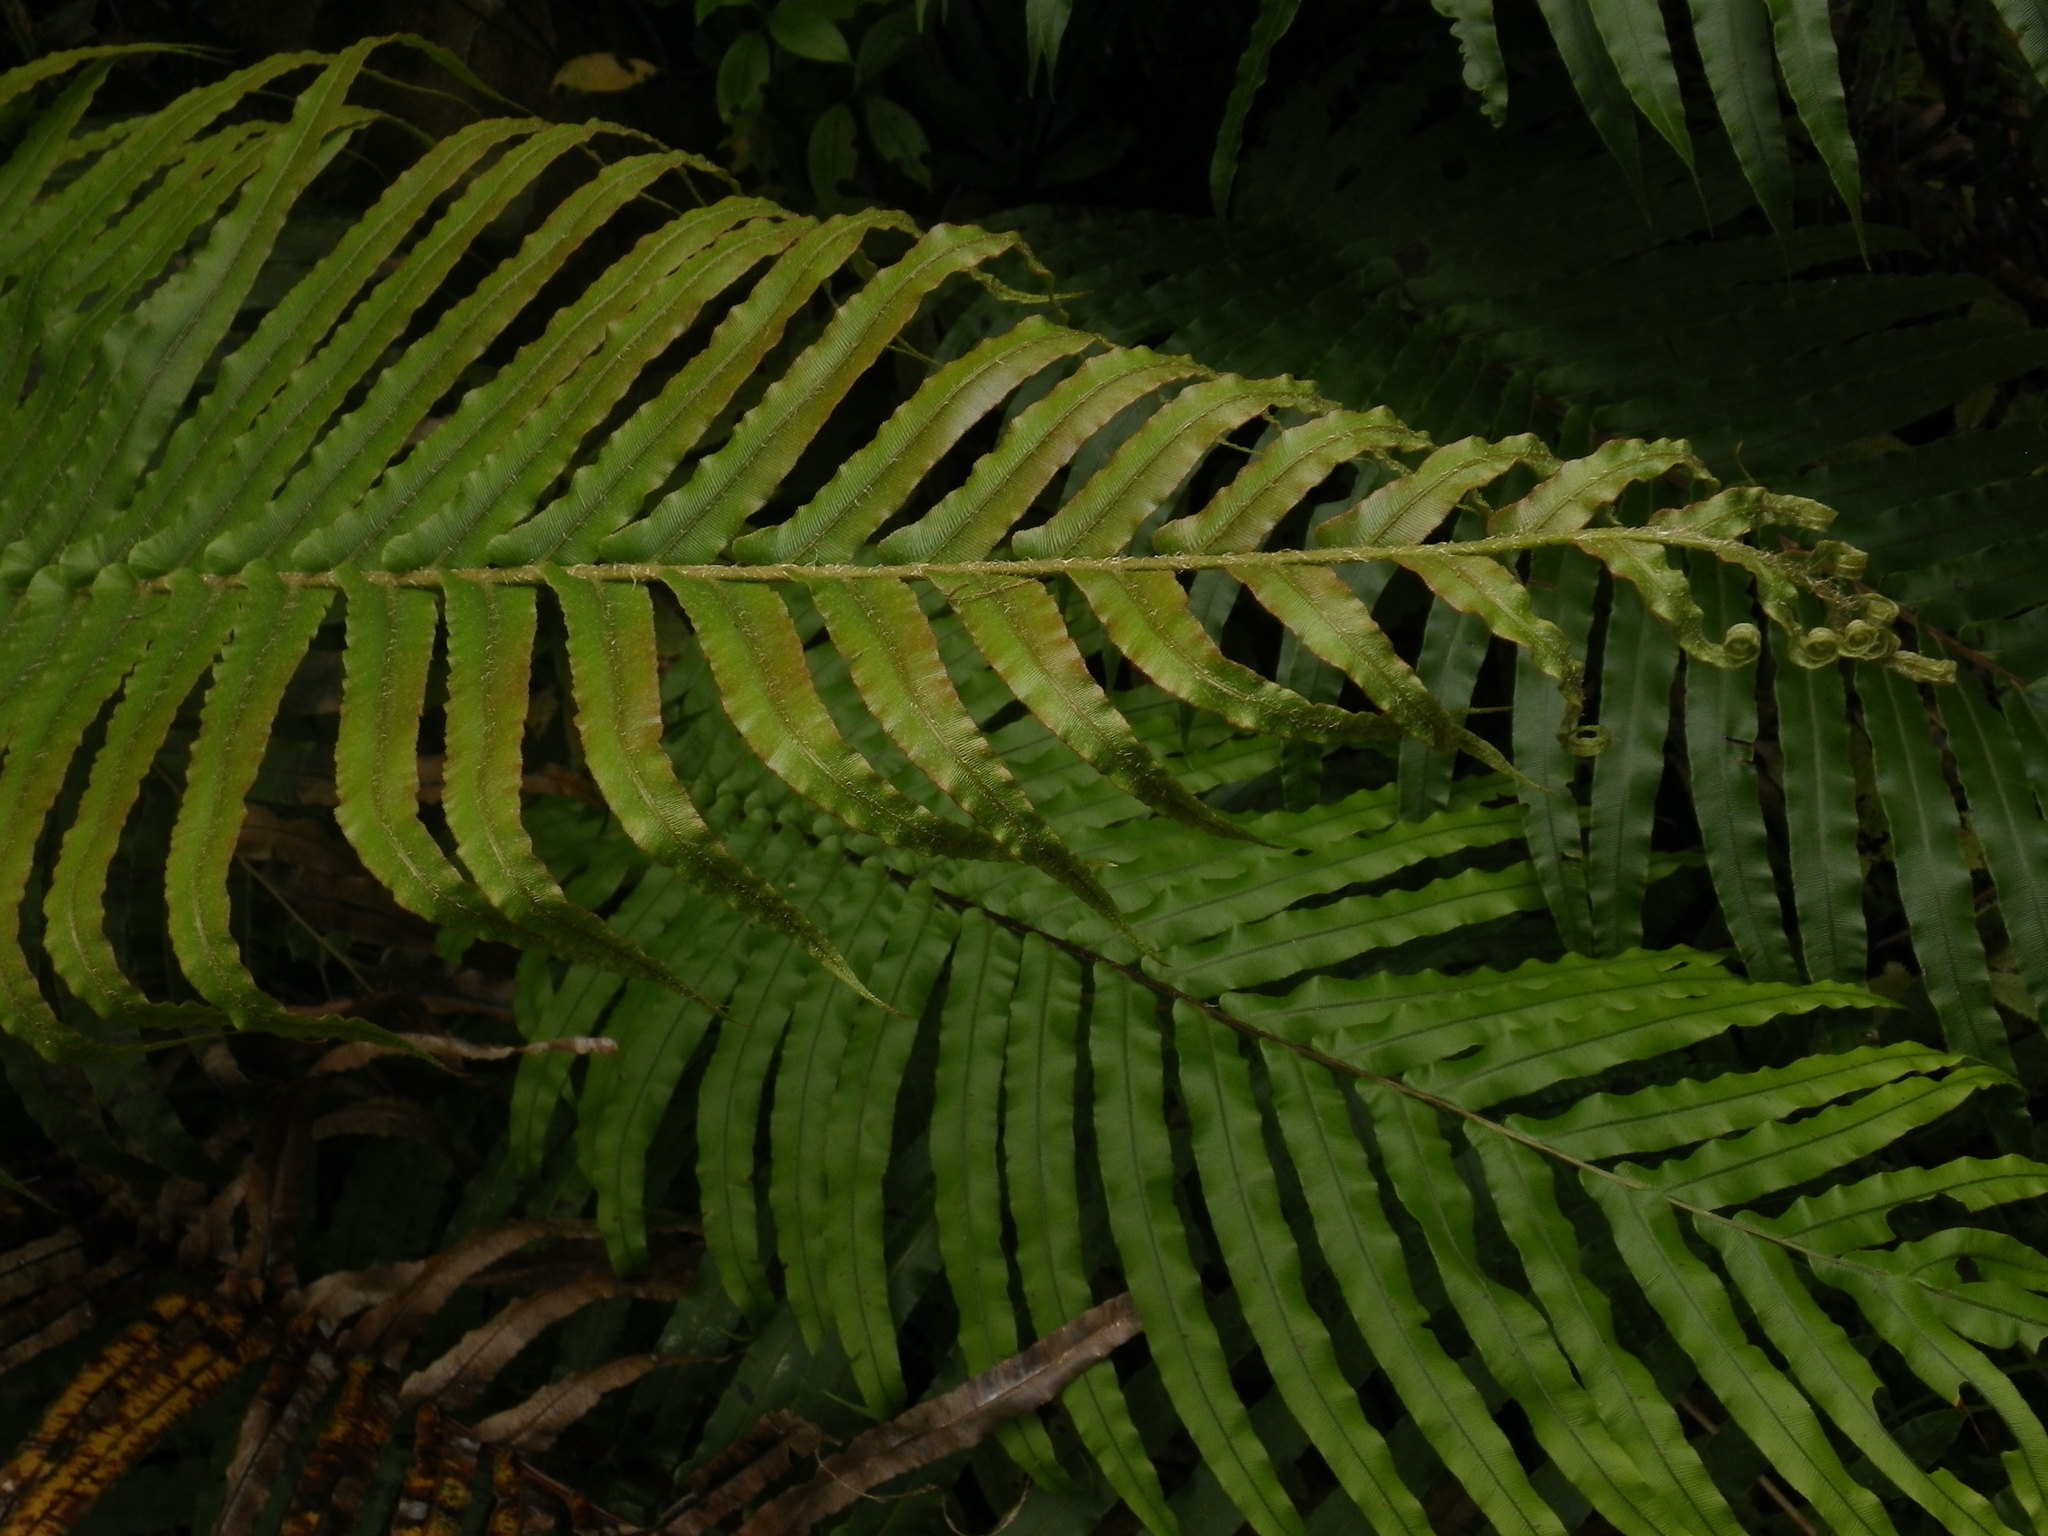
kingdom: Plantae
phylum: Tracheophyta
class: Polypodiopsida
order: Polypodiales
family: Blechnaceae
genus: Parablechnum
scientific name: Parablechnum novae-zelandiae
